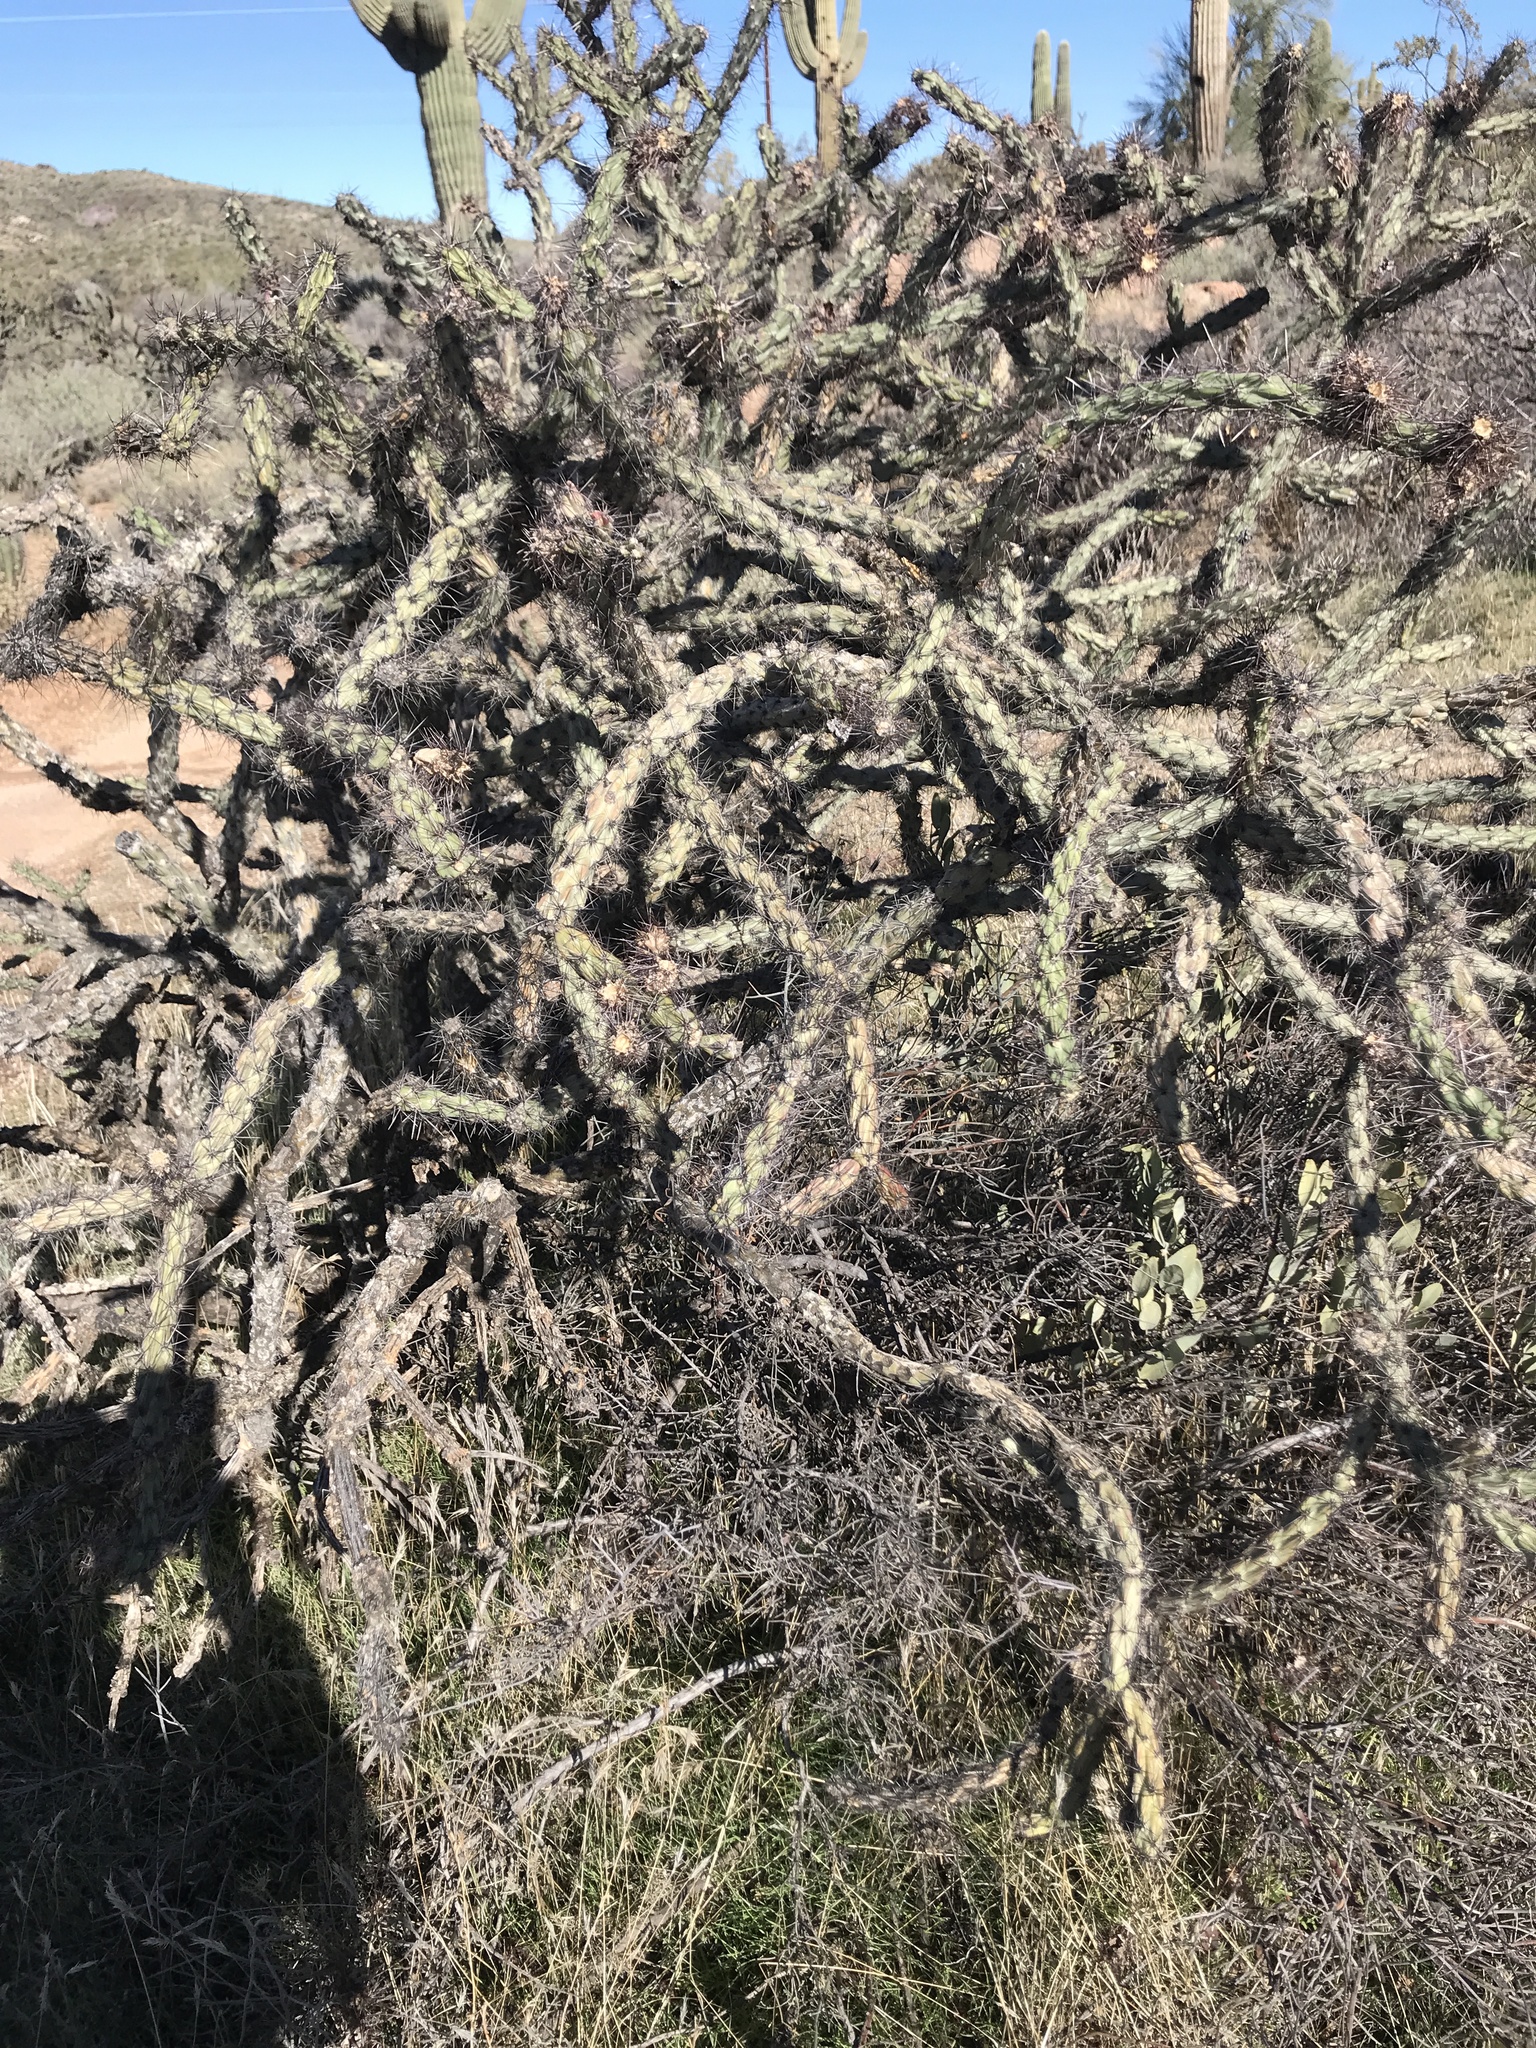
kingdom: Plantae
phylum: Tracheophyta
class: Magnoliopsida
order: Caryophyllales
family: Cactaceae
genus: Cylindropuntia
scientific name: Cylindropuntia acanthocarpa
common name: Buckhorn cholla
